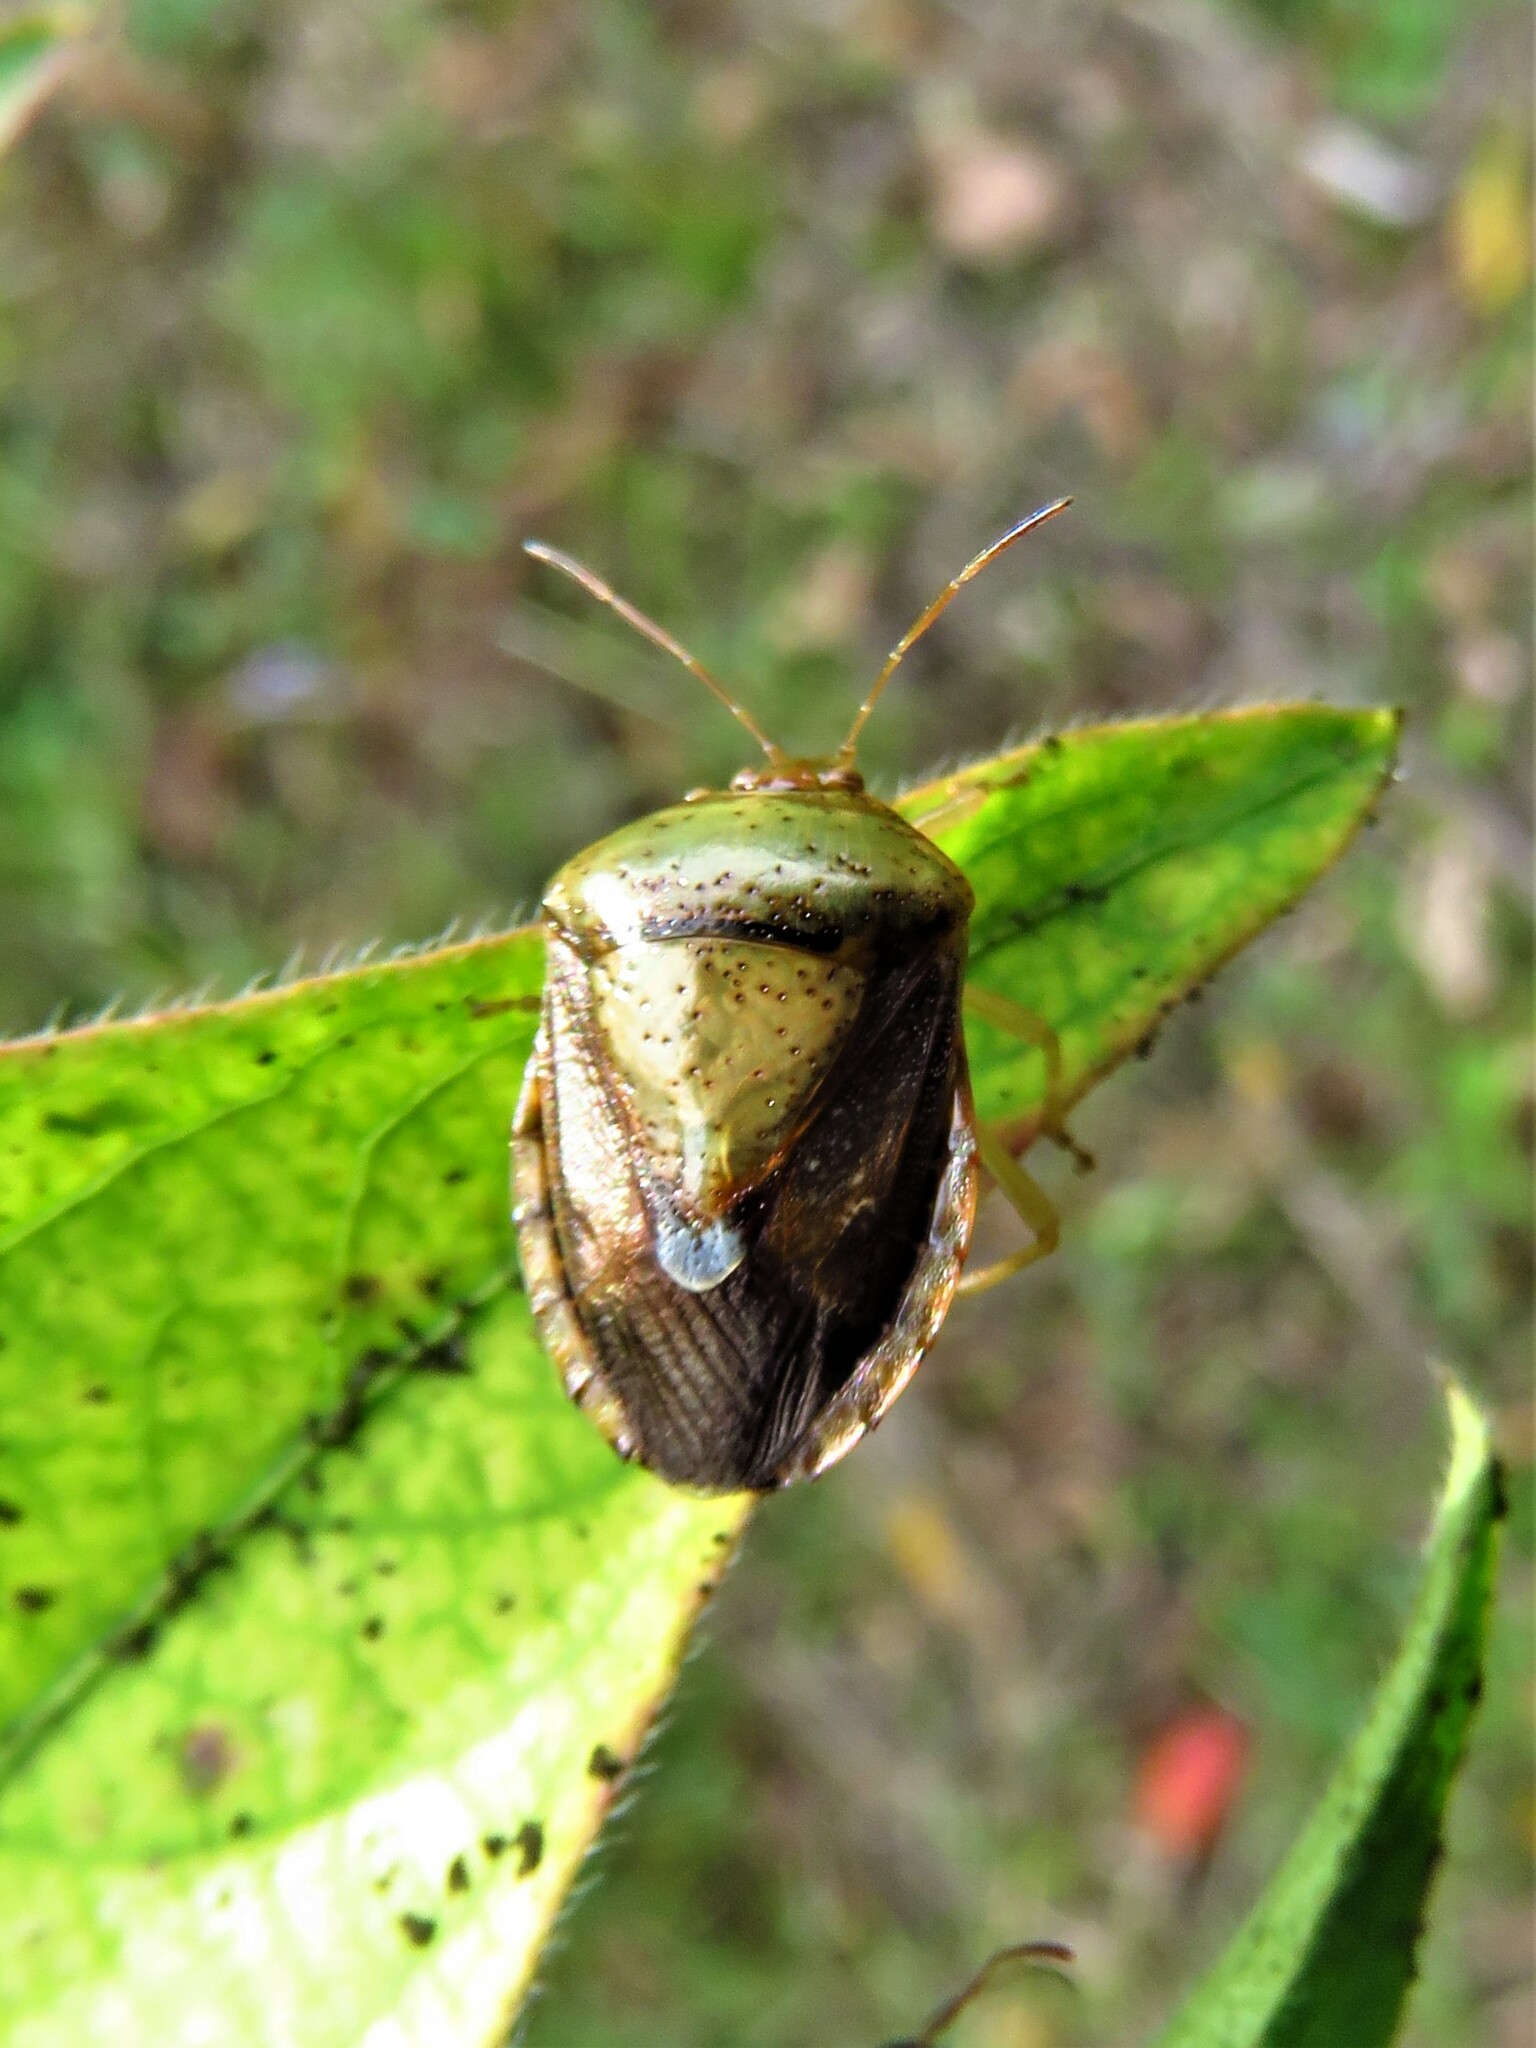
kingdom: Animalia
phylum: Arthropoda
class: Insecta
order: Hemiptera
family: Pentatomidae
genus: Edessa
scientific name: Edessa bifida
